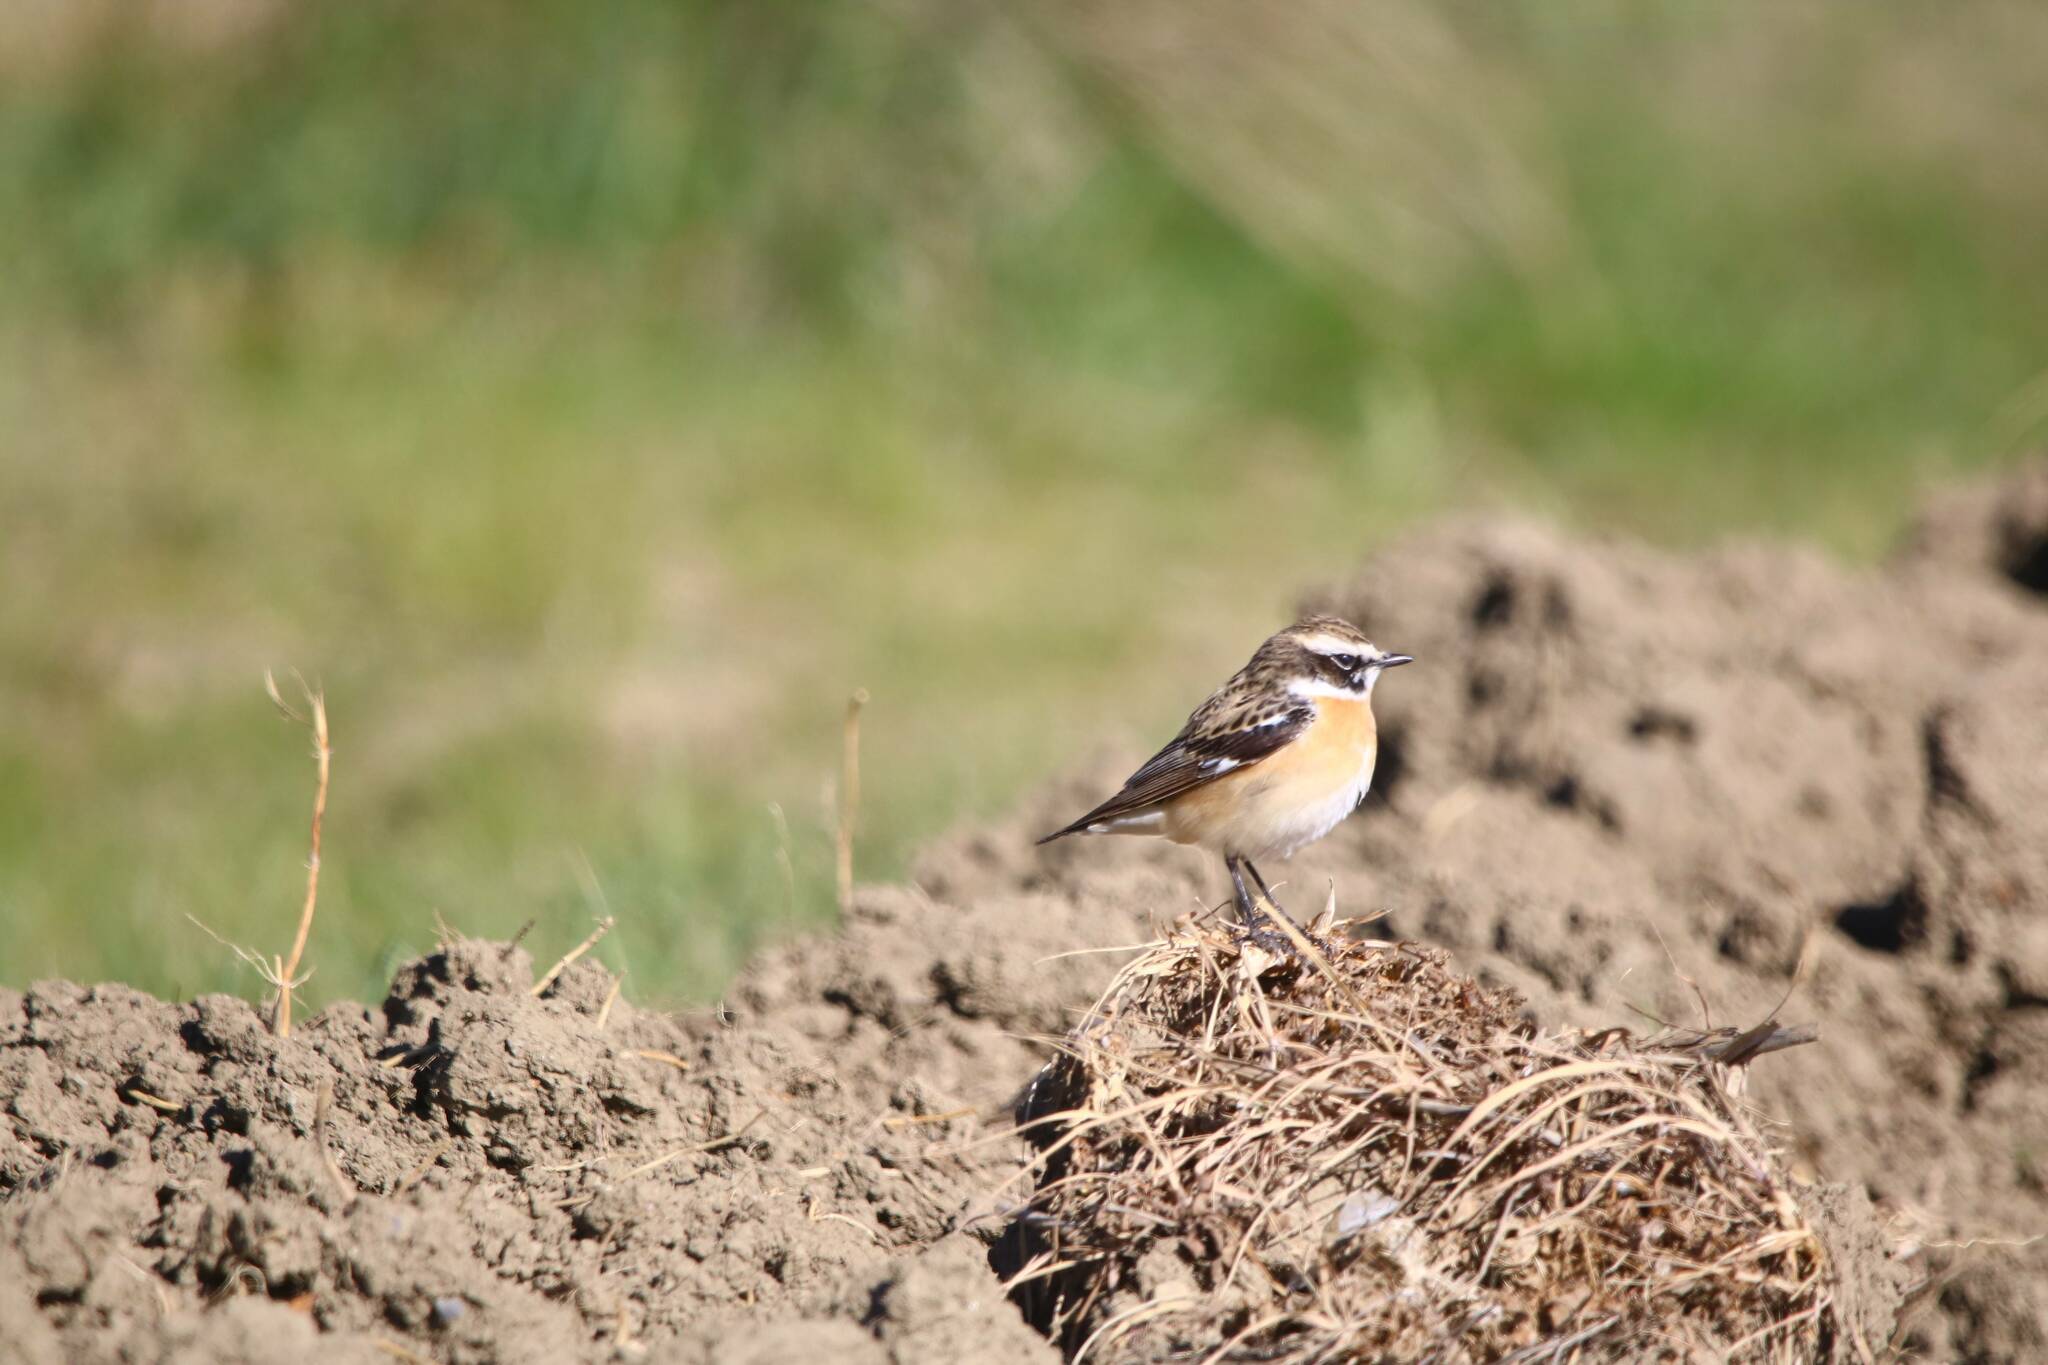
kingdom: Animalia
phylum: Chordata
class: Aves
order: Passeriformes
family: Muscicapidae
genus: Saxicola
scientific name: Saxicola rubetra
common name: Whinchat
